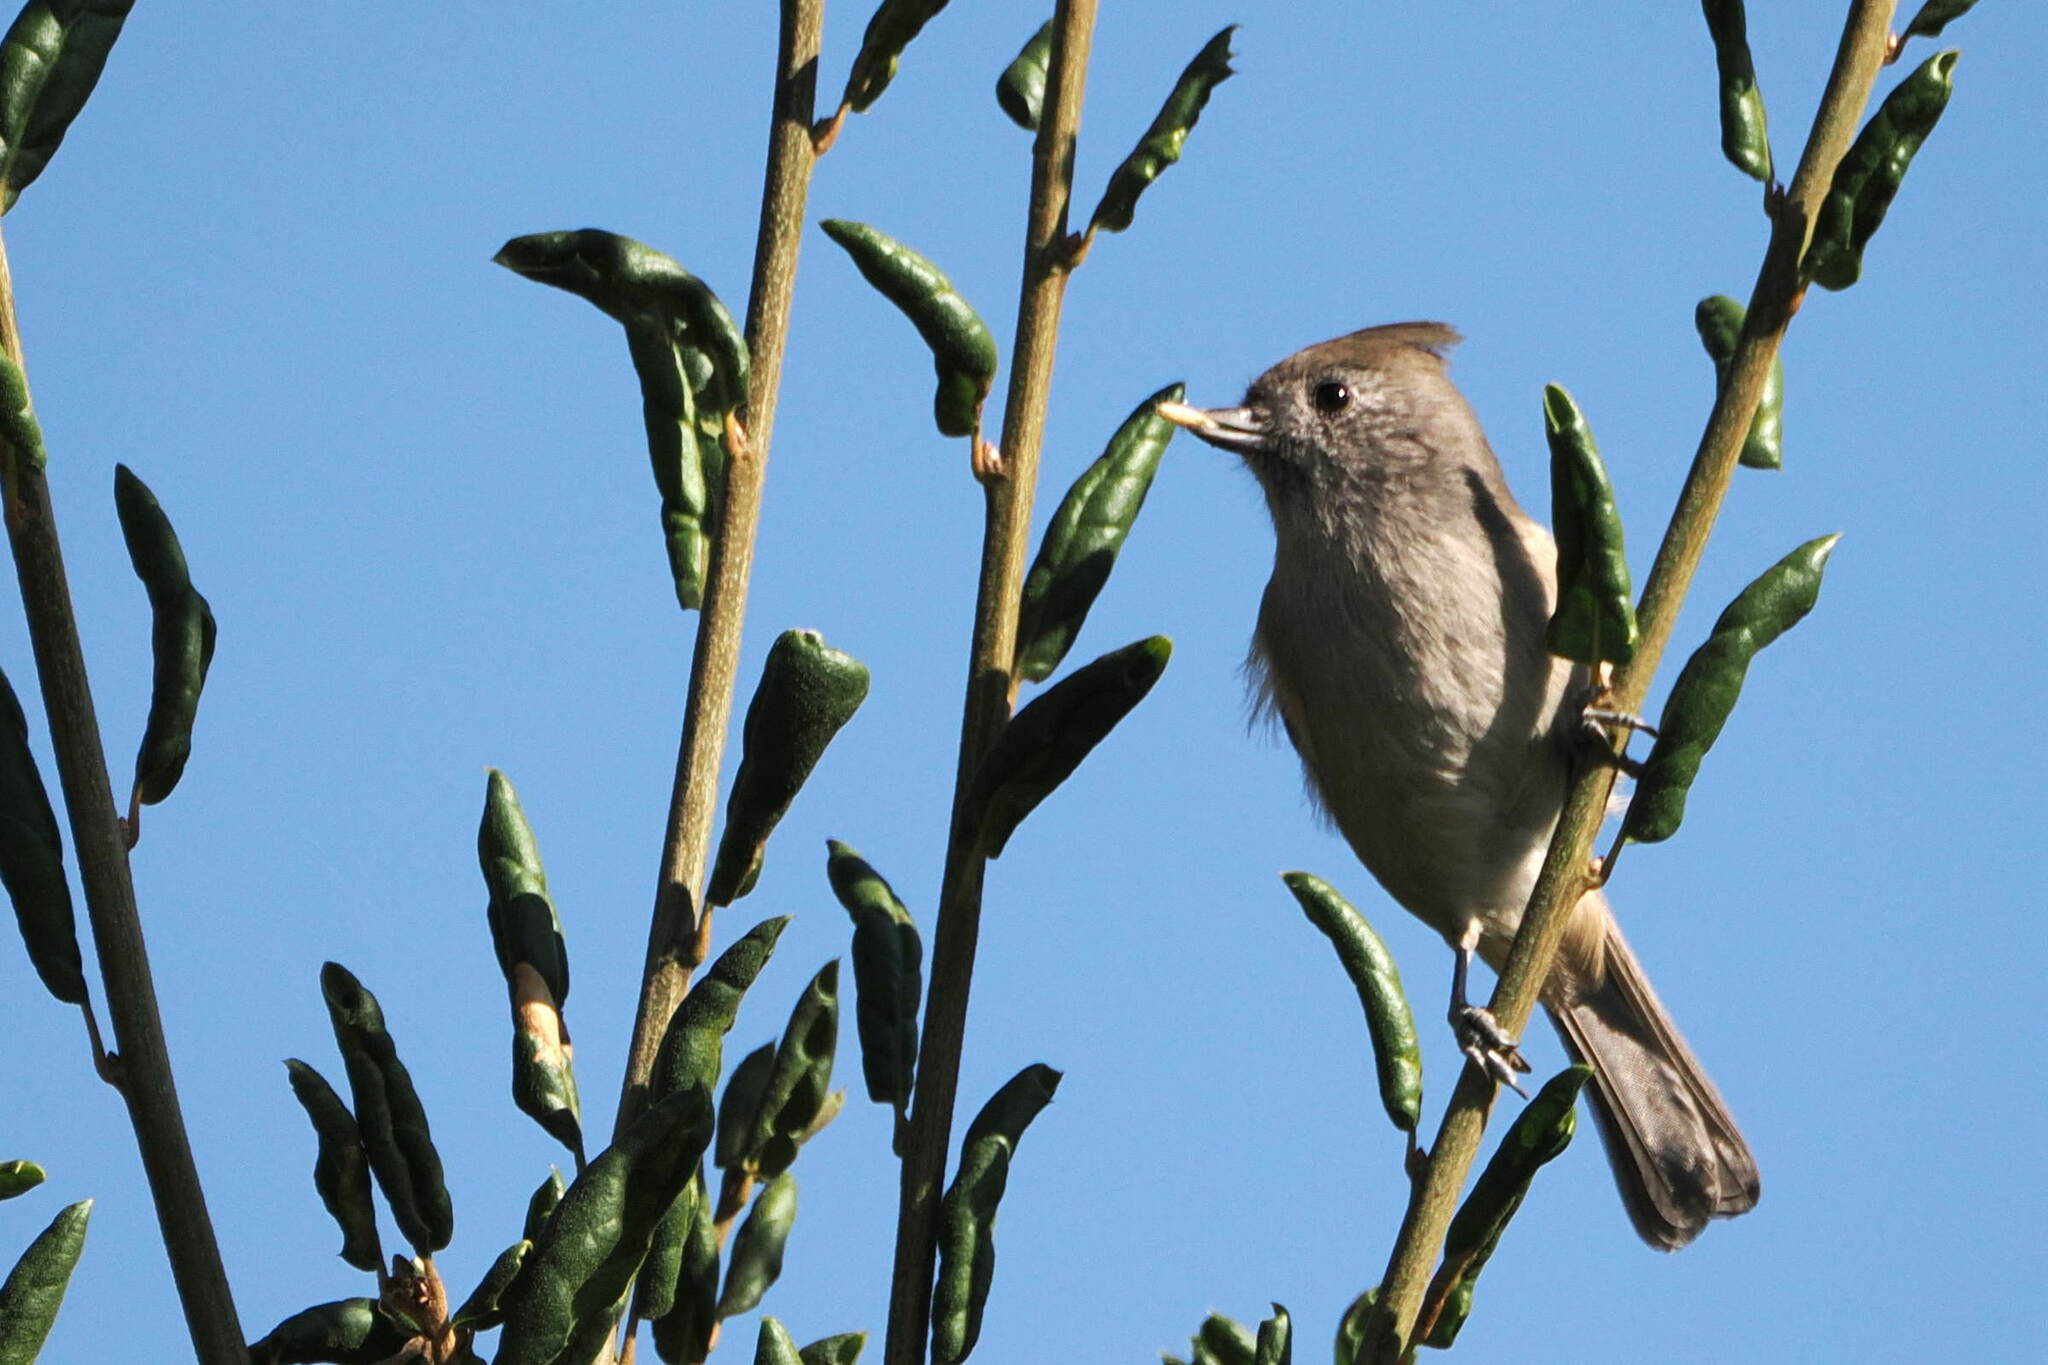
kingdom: Animalia
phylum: Chordata
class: Aves
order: Passeriformes
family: Paridae
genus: Baeolophus
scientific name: Baeolophus inornatus
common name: Oak titmouse
